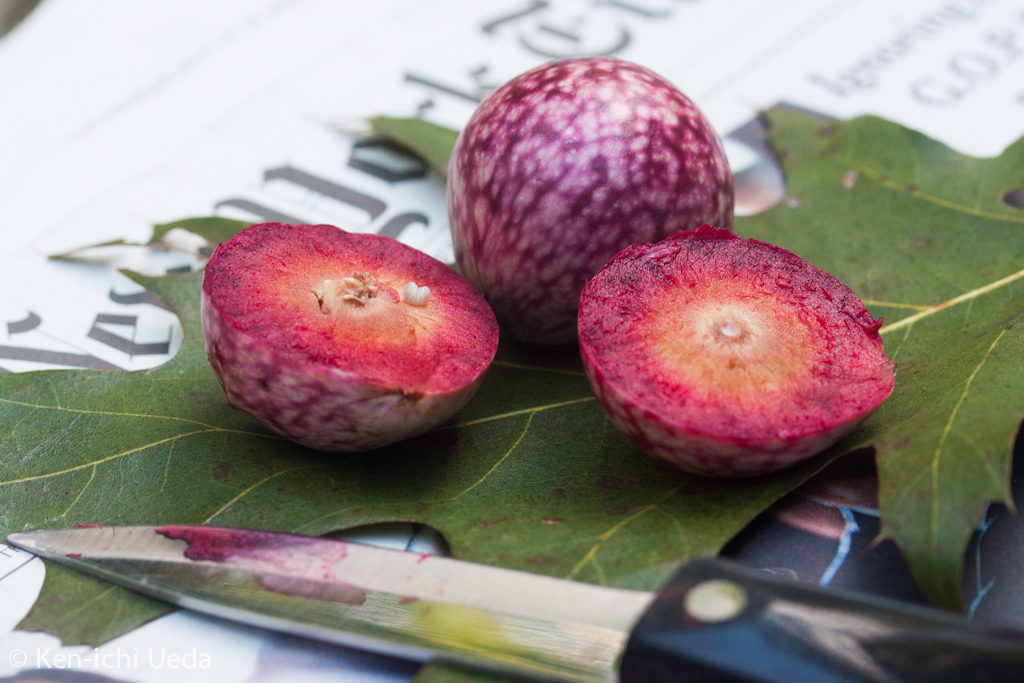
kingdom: Animalia
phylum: Arthropoda
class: Insecta
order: Hymenoptera
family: Cynipidae
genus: Amphibolips
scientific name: Amphibolips
